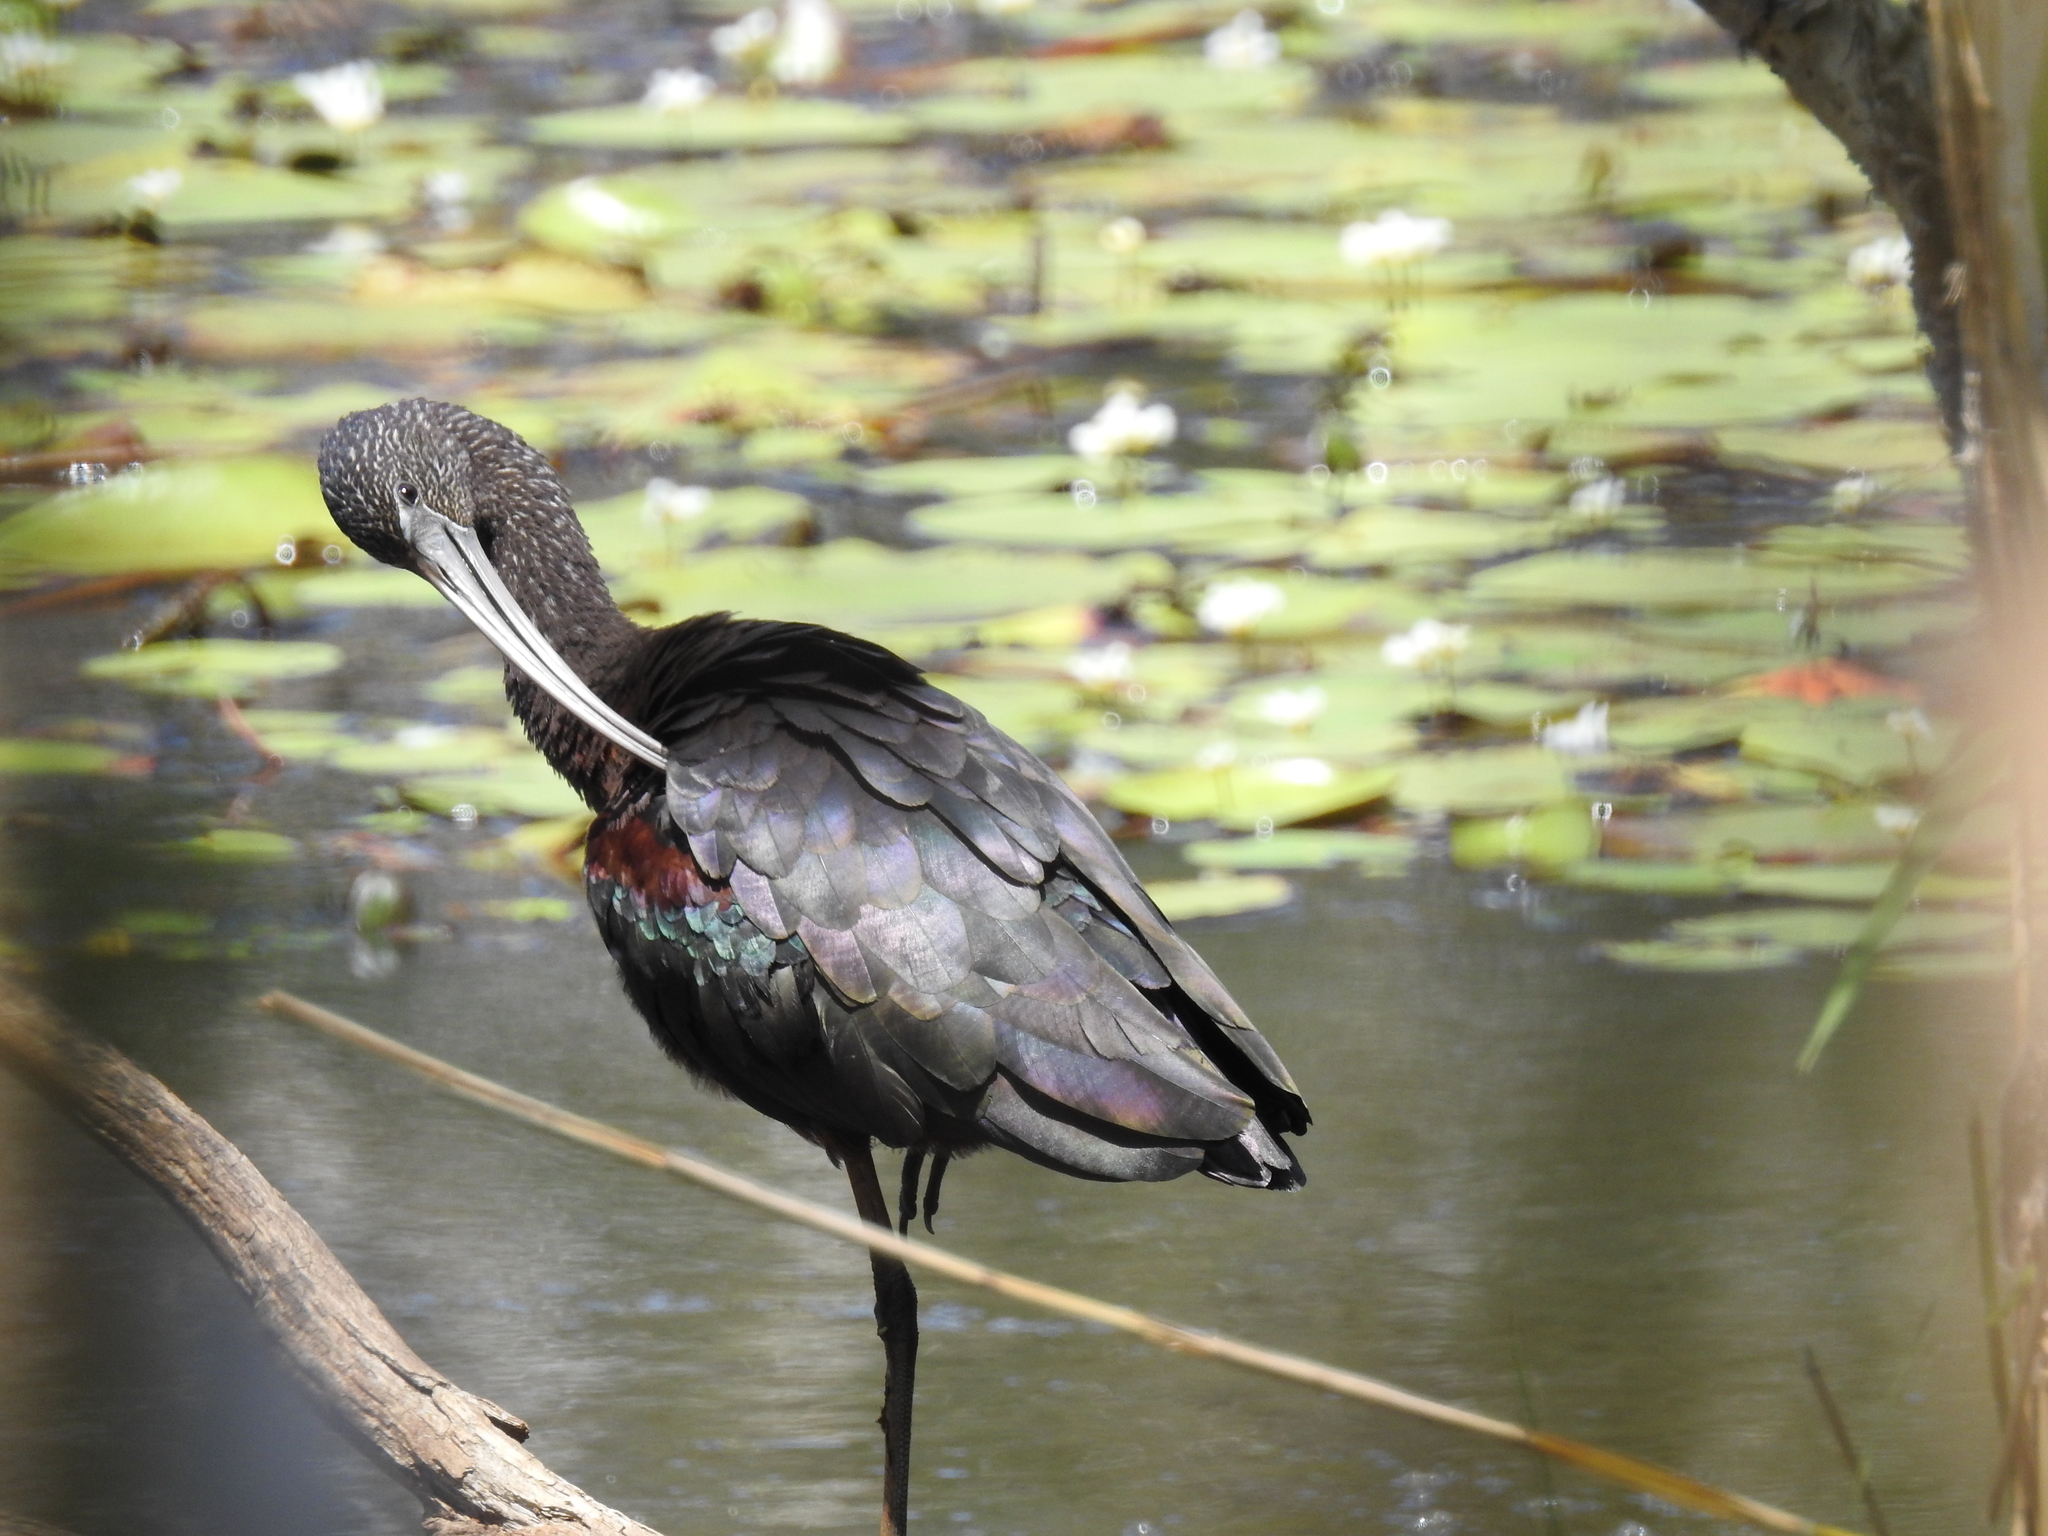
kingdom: Animalia
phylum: Chordata
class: Aves
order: Pelecaniformes
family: Threskiornithidae
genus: Plegadis
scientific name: Plegadis falcinellus
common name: Glossy ibis
